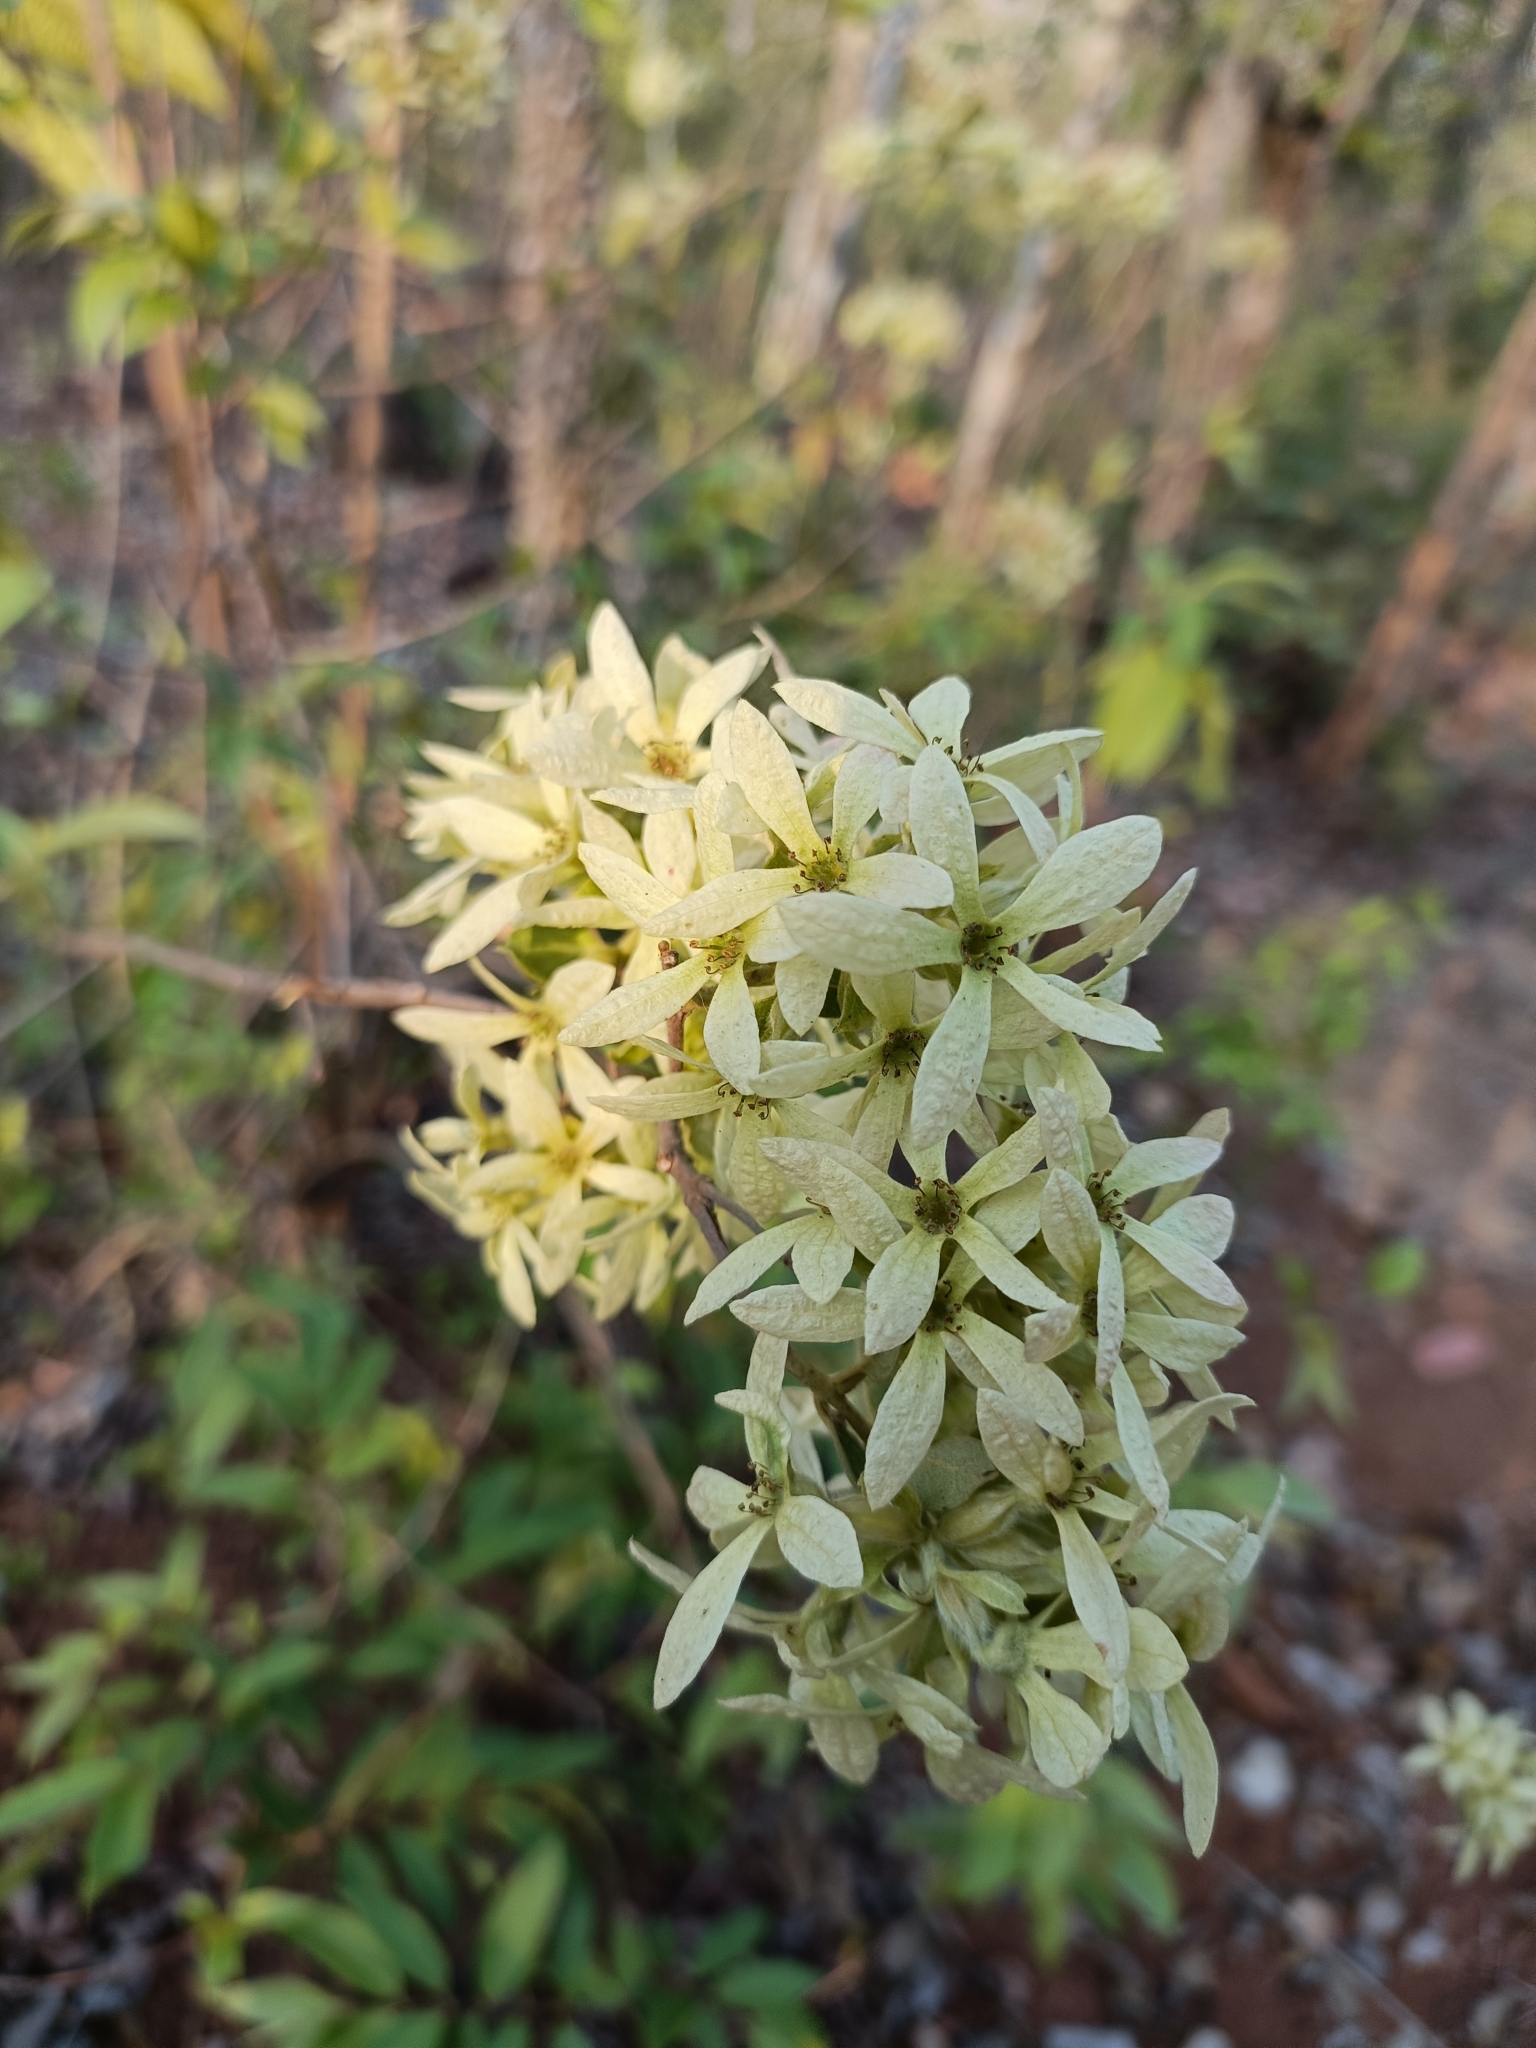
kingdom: Plantae
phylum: Tracheophyta
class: Magnoliopsida
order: Myrtales
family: Combretaceae
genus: Getonia
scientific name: Getonia floribunda
